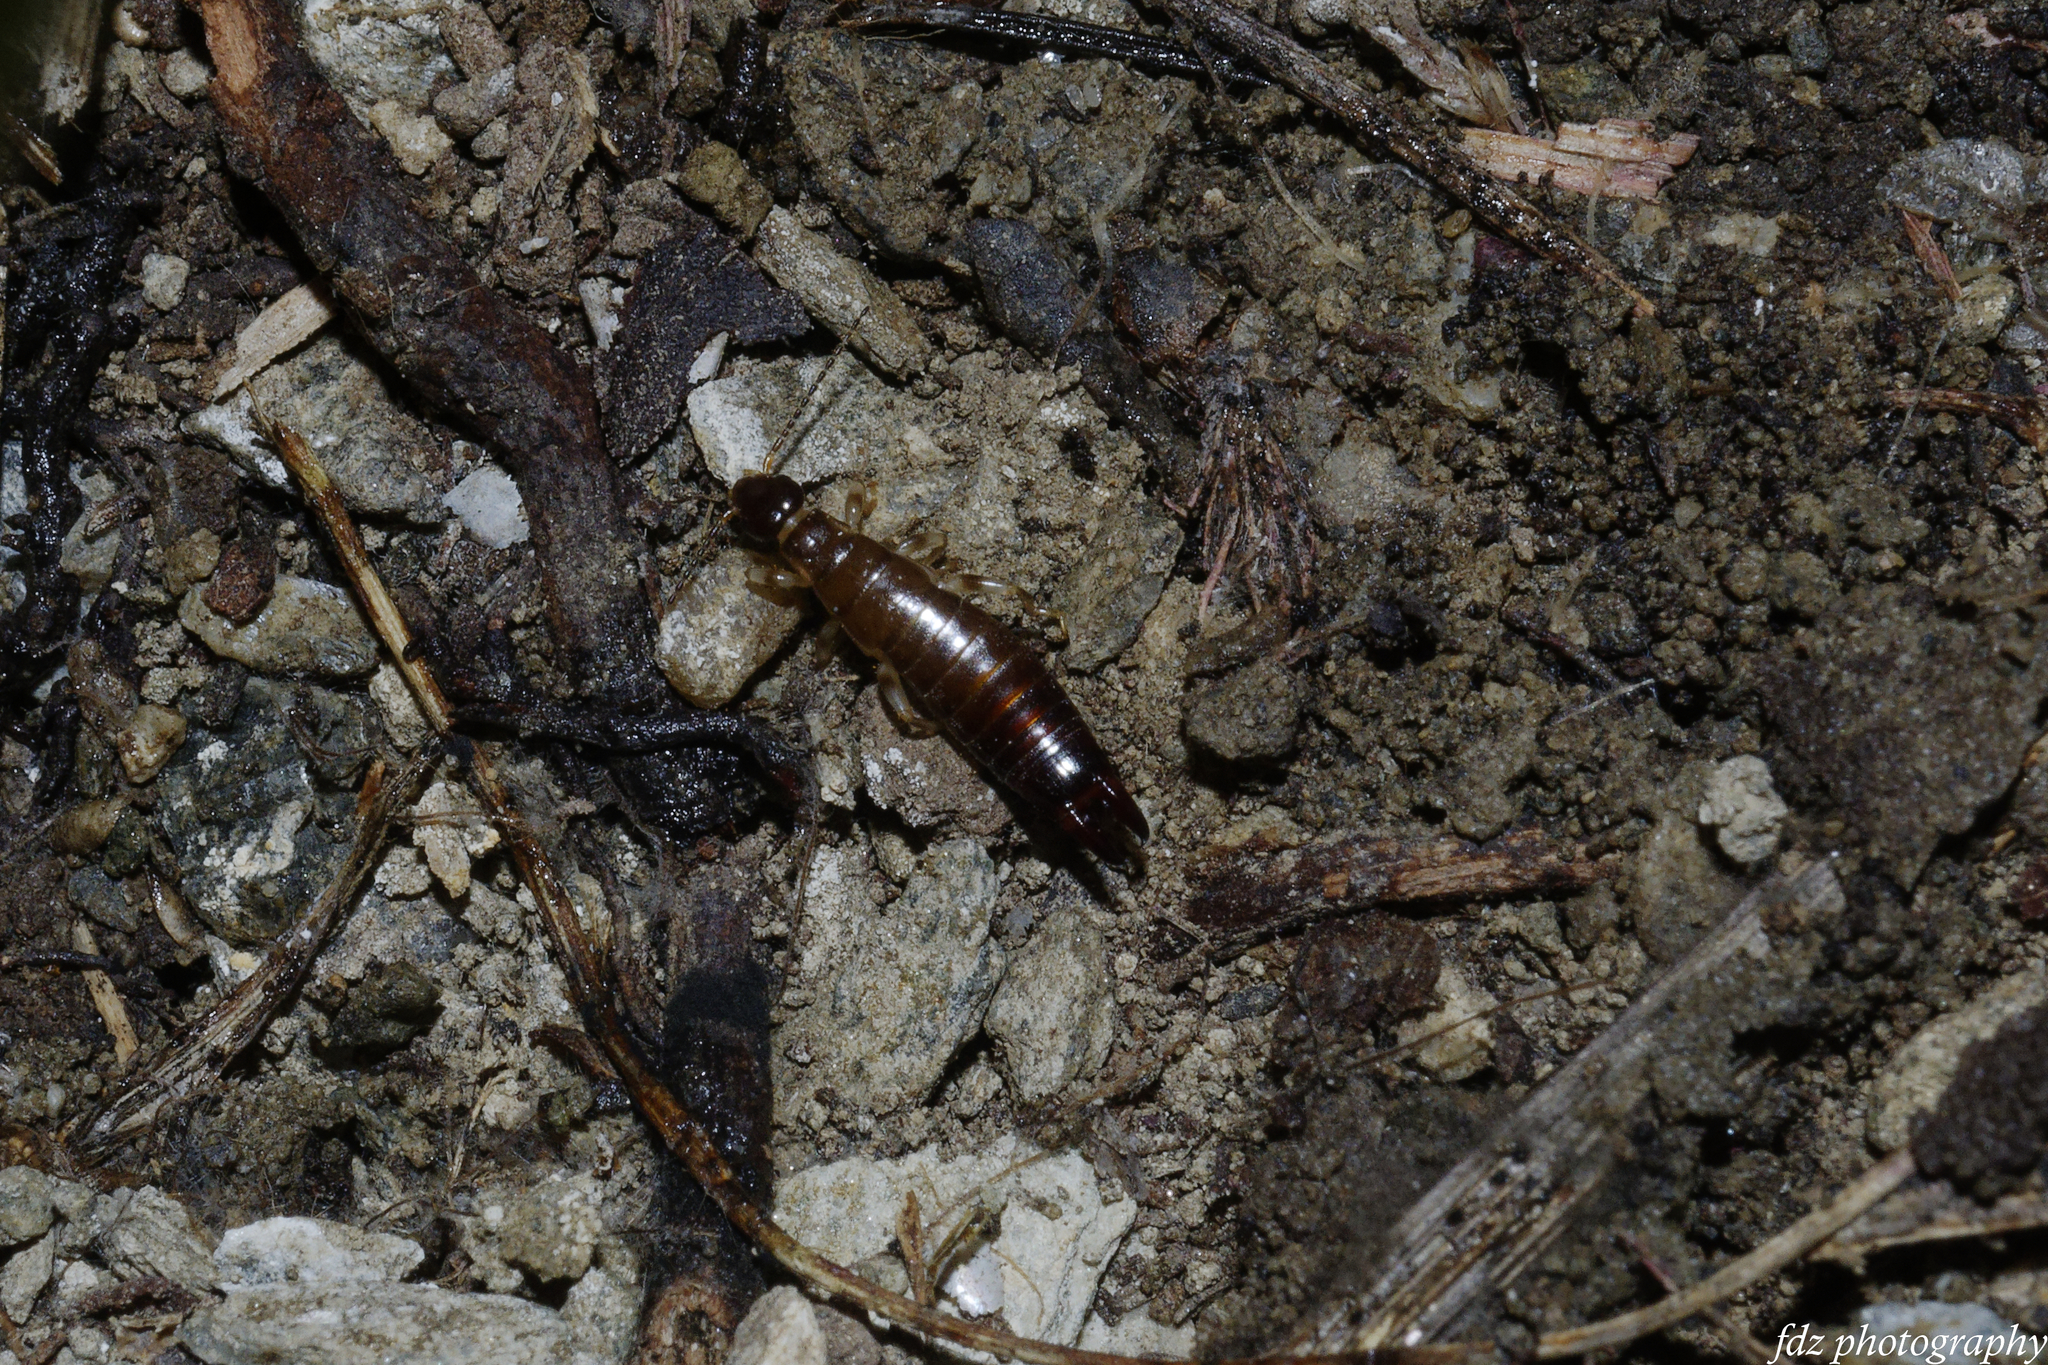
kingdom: Animalia
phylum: Arthropoda
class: Insecta
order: Dermaptera
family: Anisolabididae
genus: Euborellia
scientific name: Euborellia annulipes
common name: Ringlegged earwig
